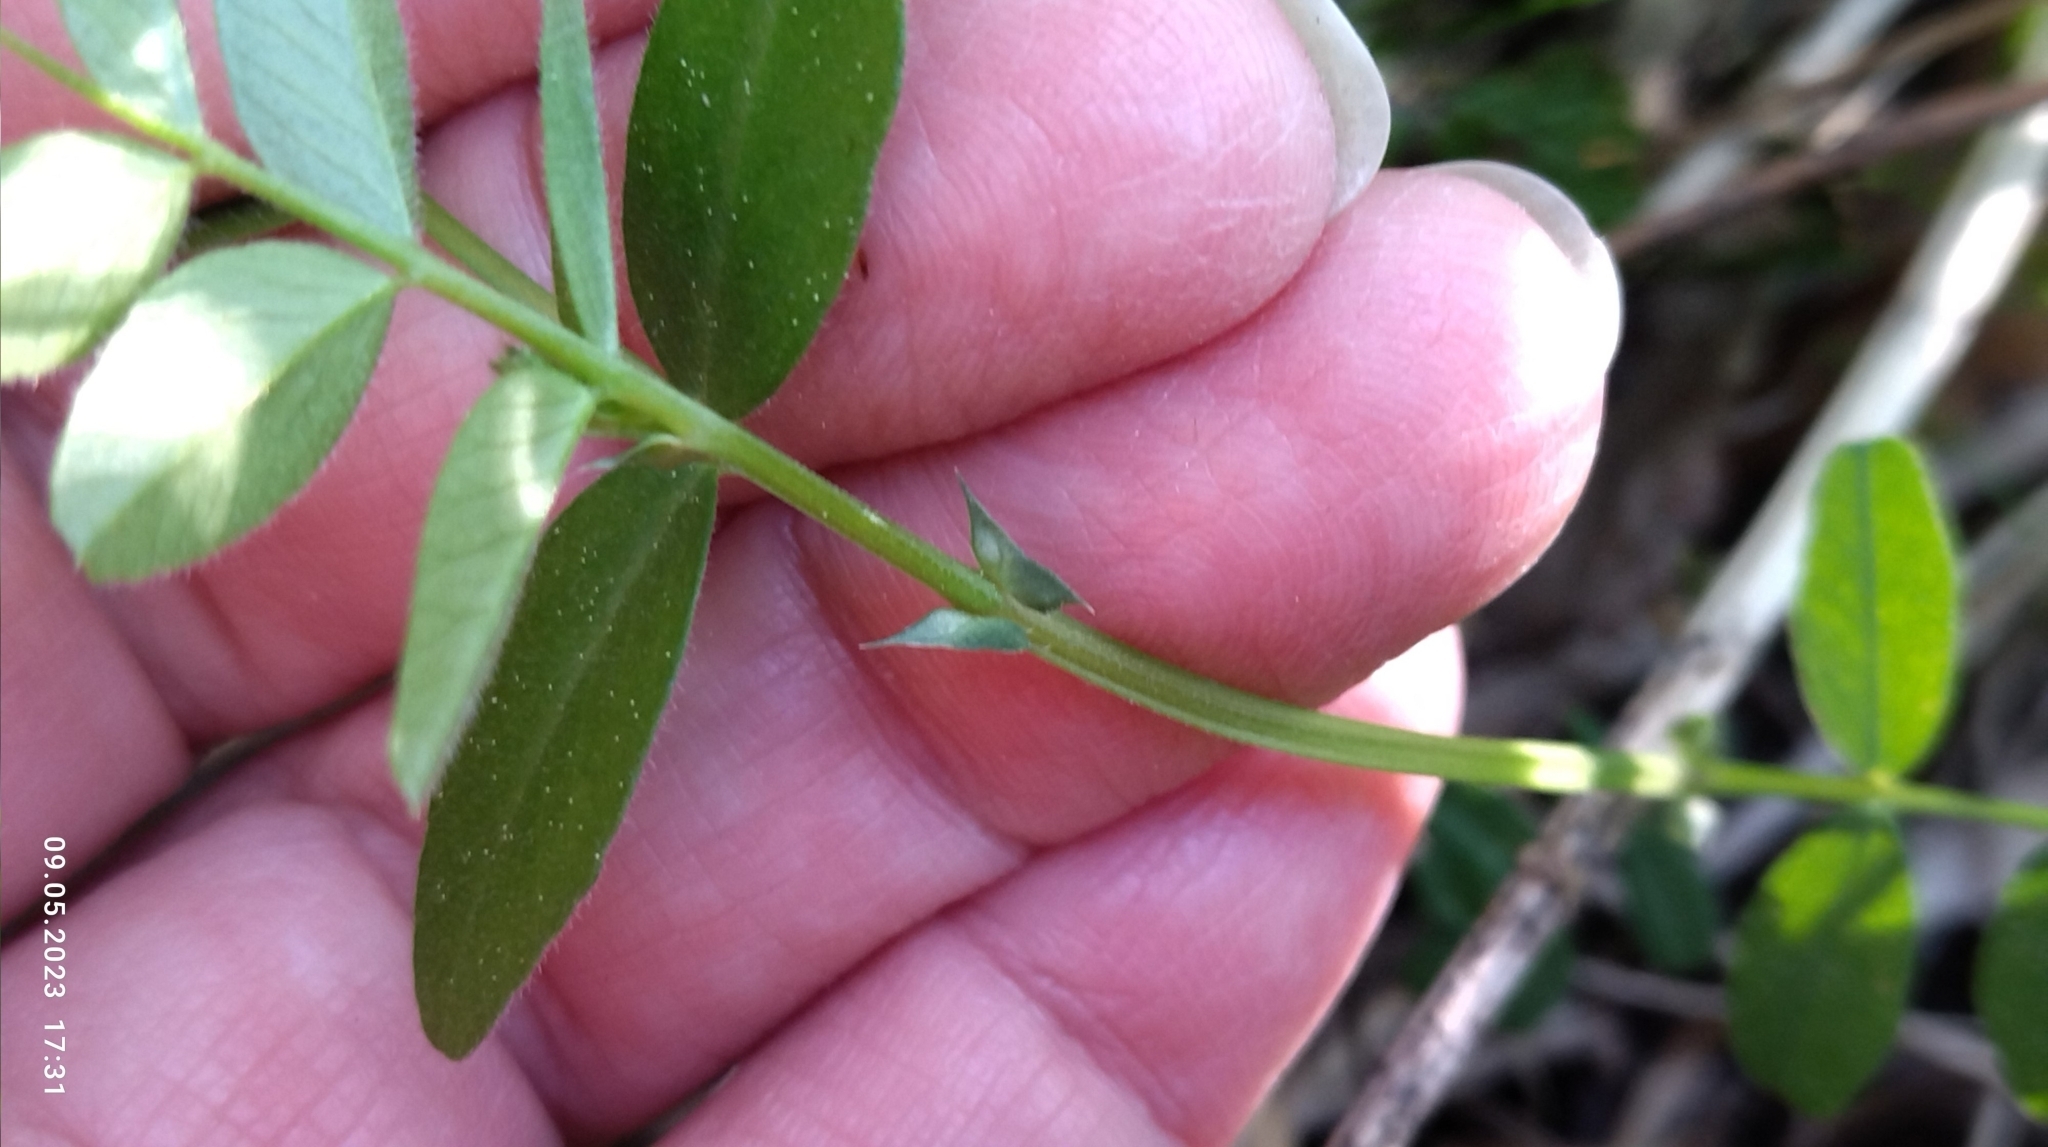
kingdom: Plantae
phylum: Tracheophyta
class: Magnoliopsida
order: Fabales
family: Fabaceae
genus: Vicia
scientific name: Vicia sepium
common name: Bush vetch
